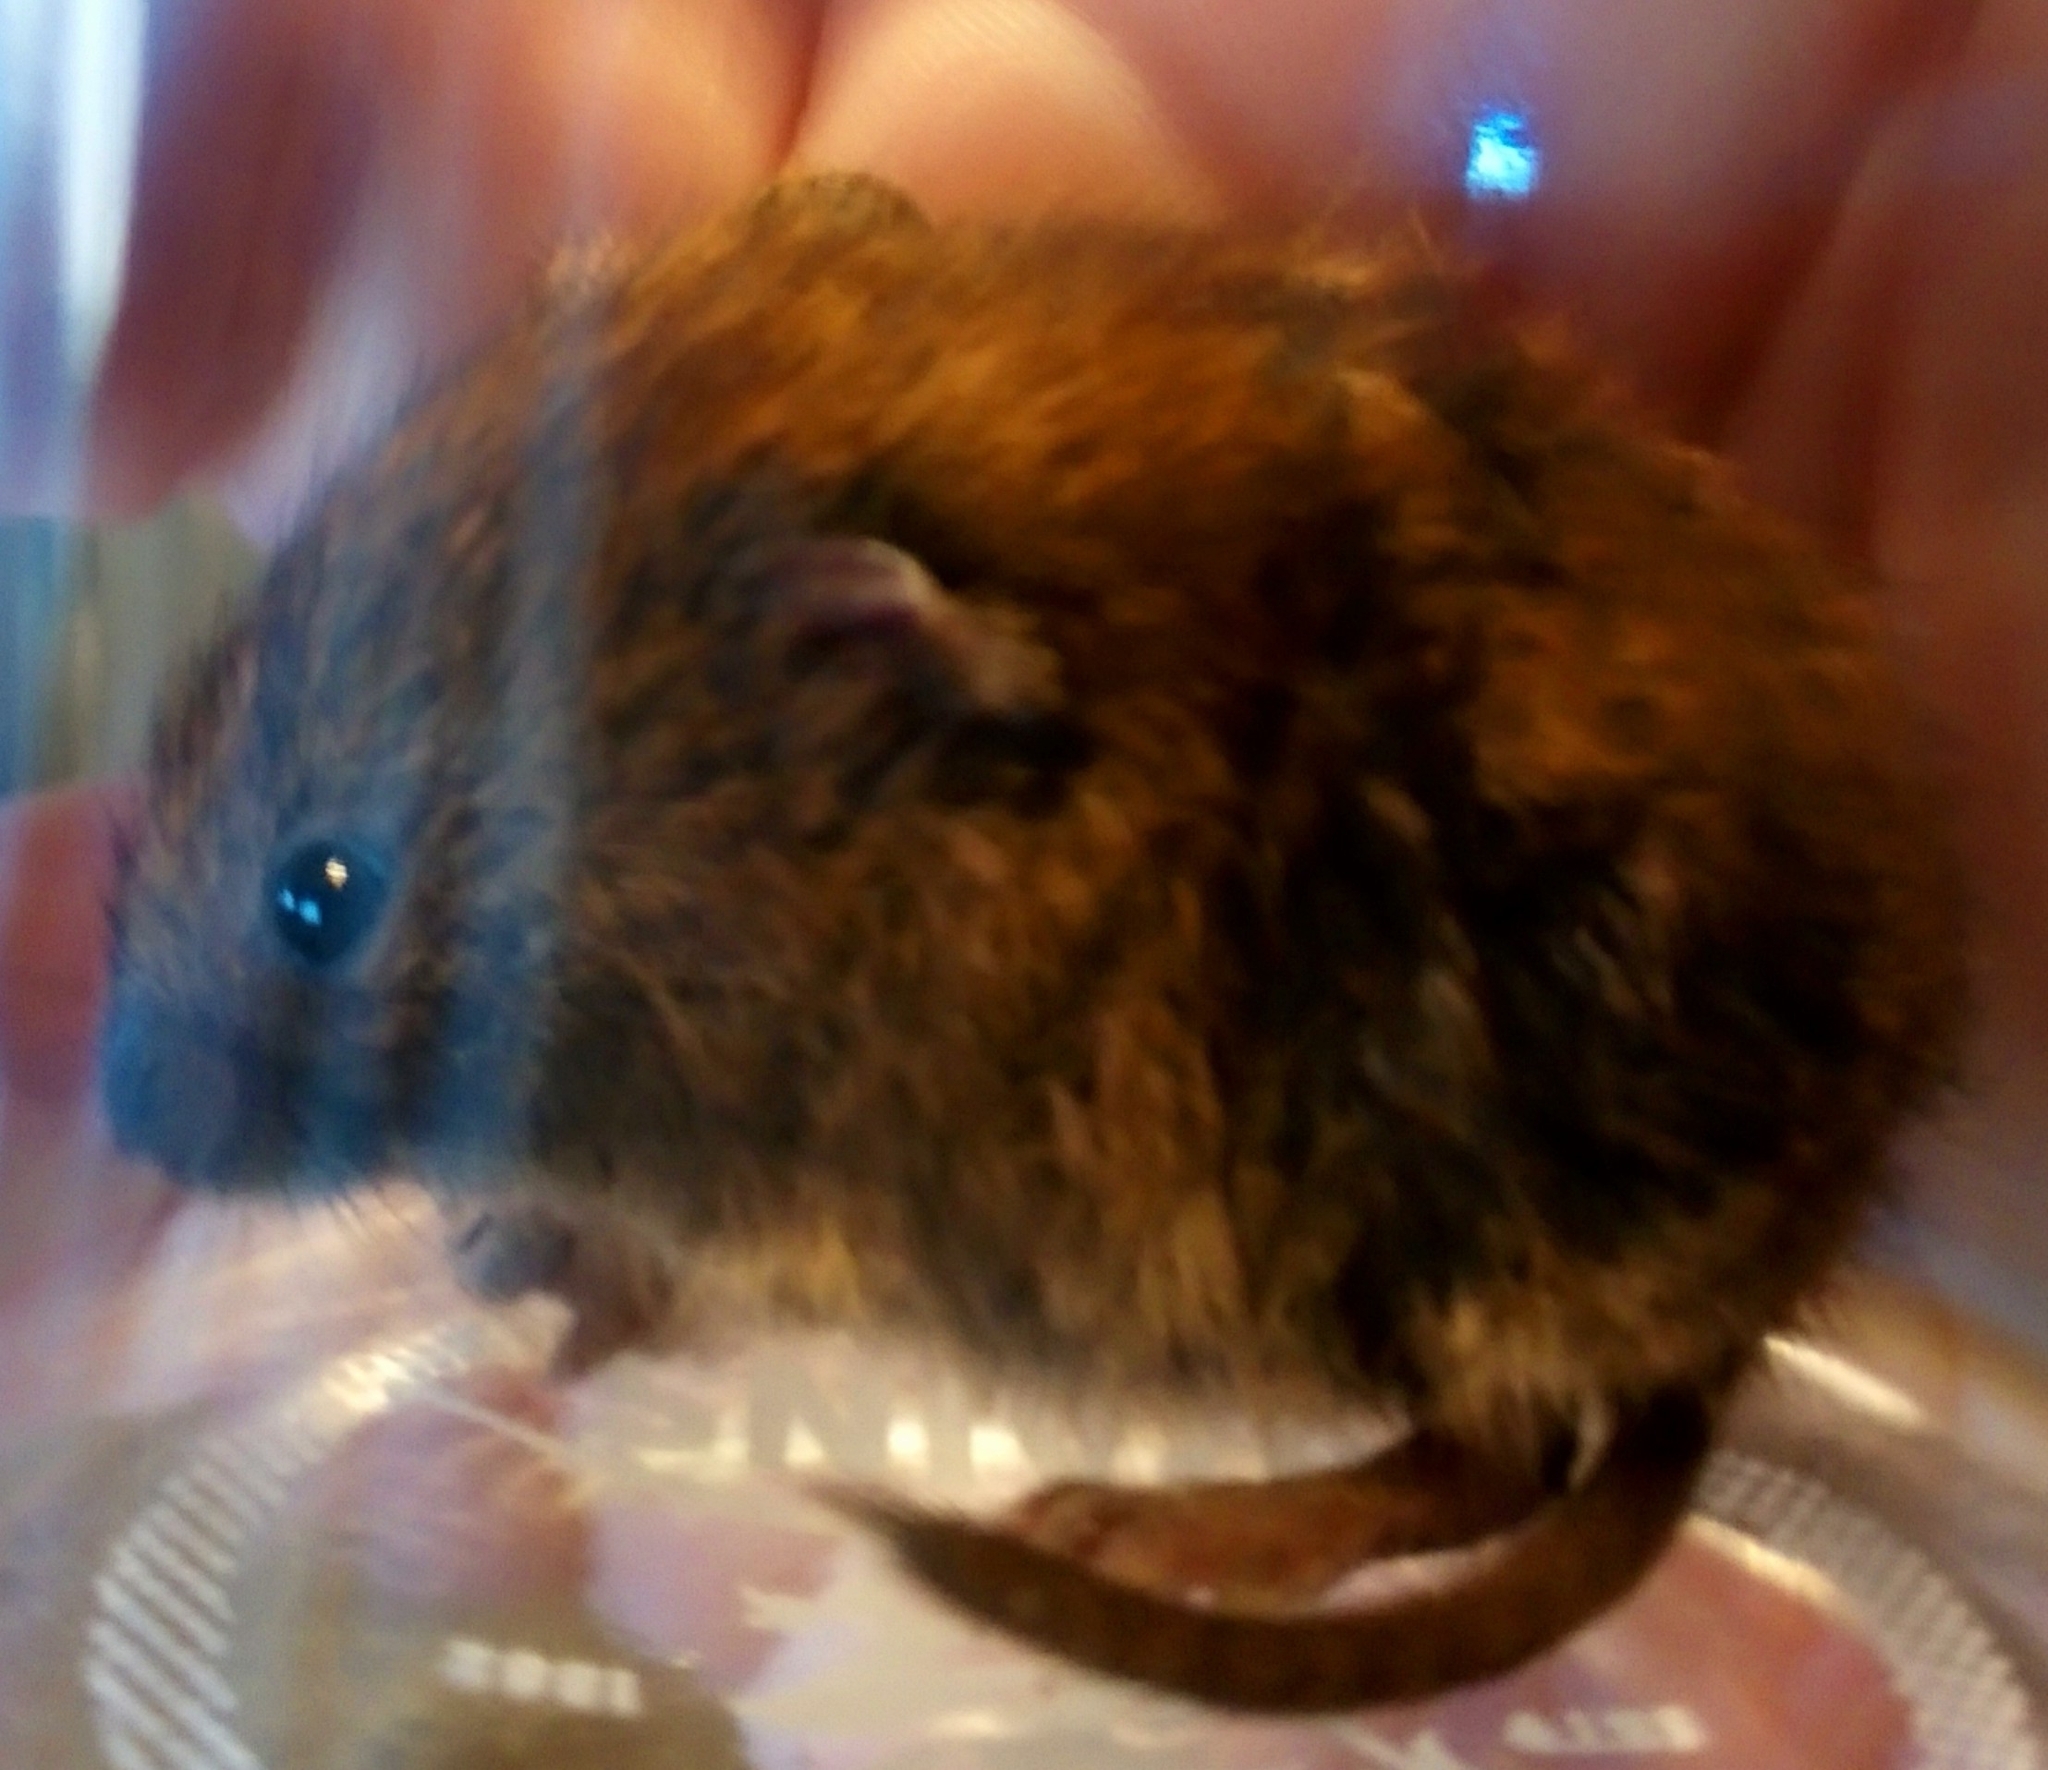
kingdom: Animalia
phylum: Chordata
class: Mammalia
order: Rodentia
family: Cricetidae
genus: Myodes
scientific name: Myodes glareolus
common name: Bank vole
